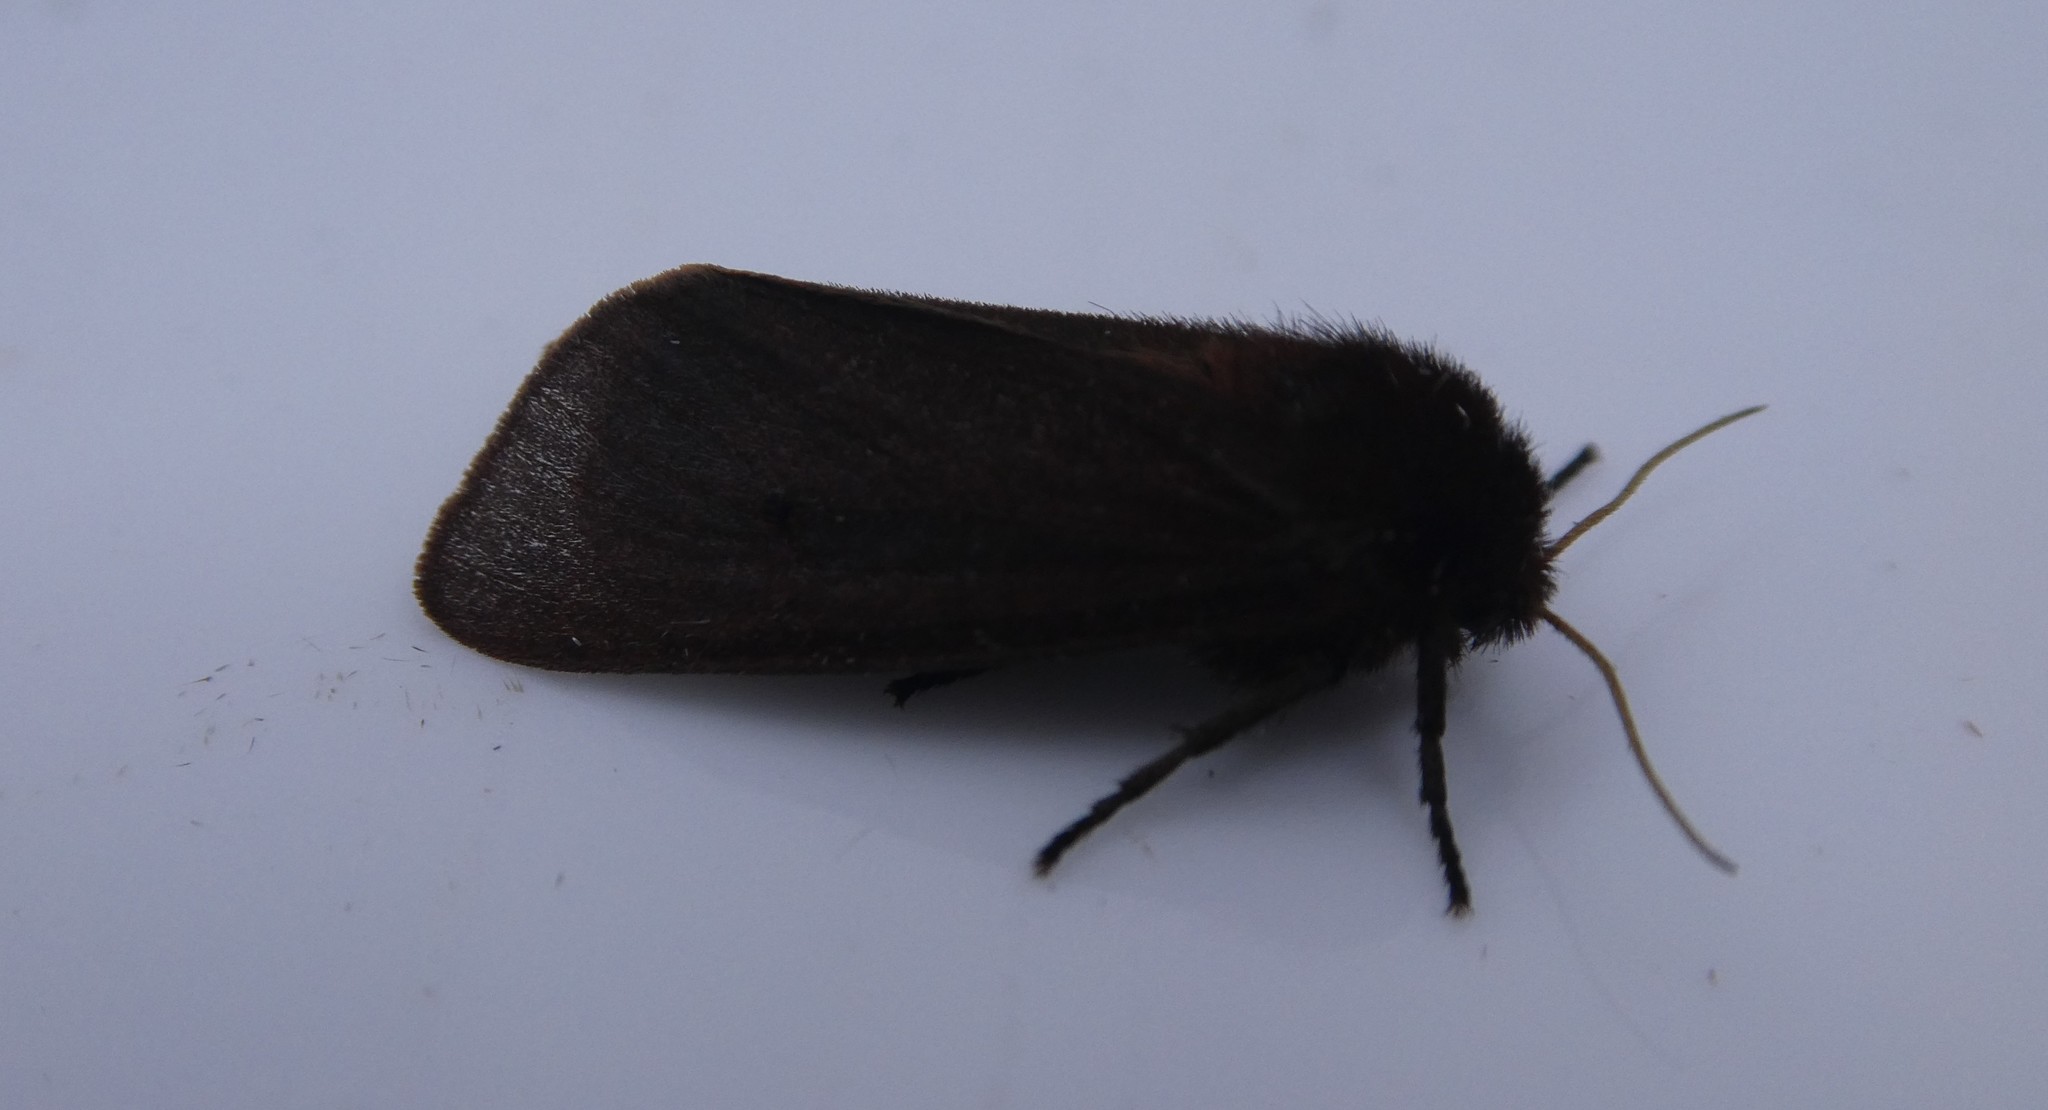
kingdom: Animalia
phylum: Arthropoda
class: Insecta
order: Lepidoptera
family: Erebidae
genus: Phragmatobia
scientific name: Phragmatobia fuliginosa
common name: Ruby tiger
